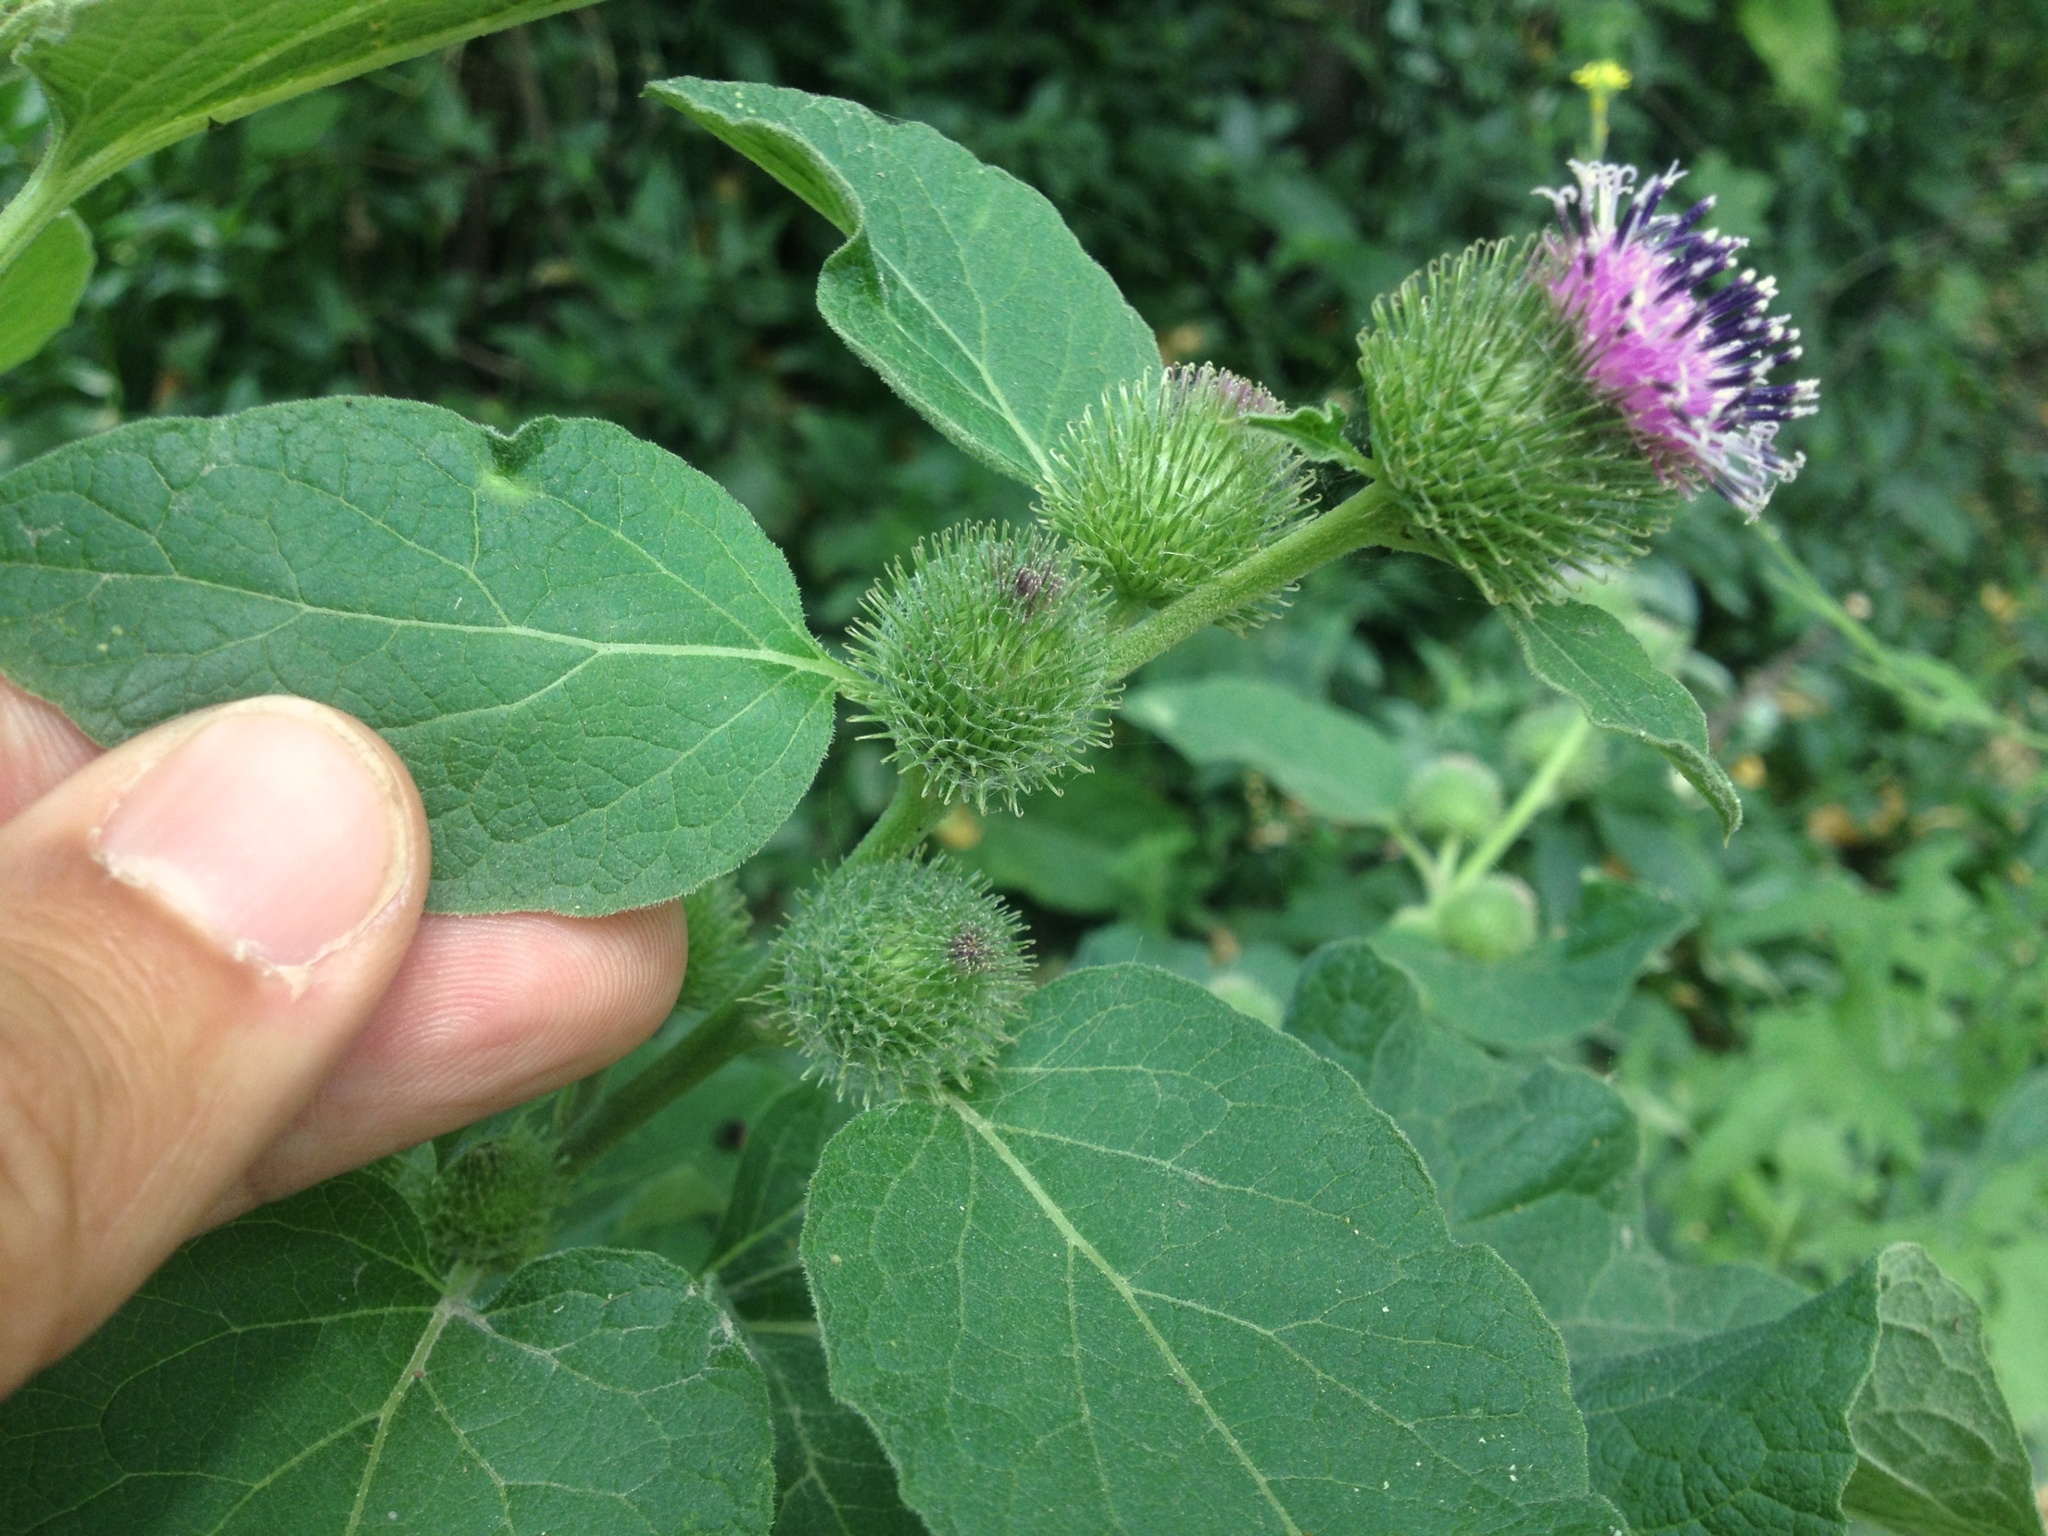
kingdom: Plantae
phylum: Tracheophyta
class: Magnoliopsida
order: Asterales
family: Asteraceae
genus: Arctium
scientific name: Arctium minus
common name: Lesser burdock
